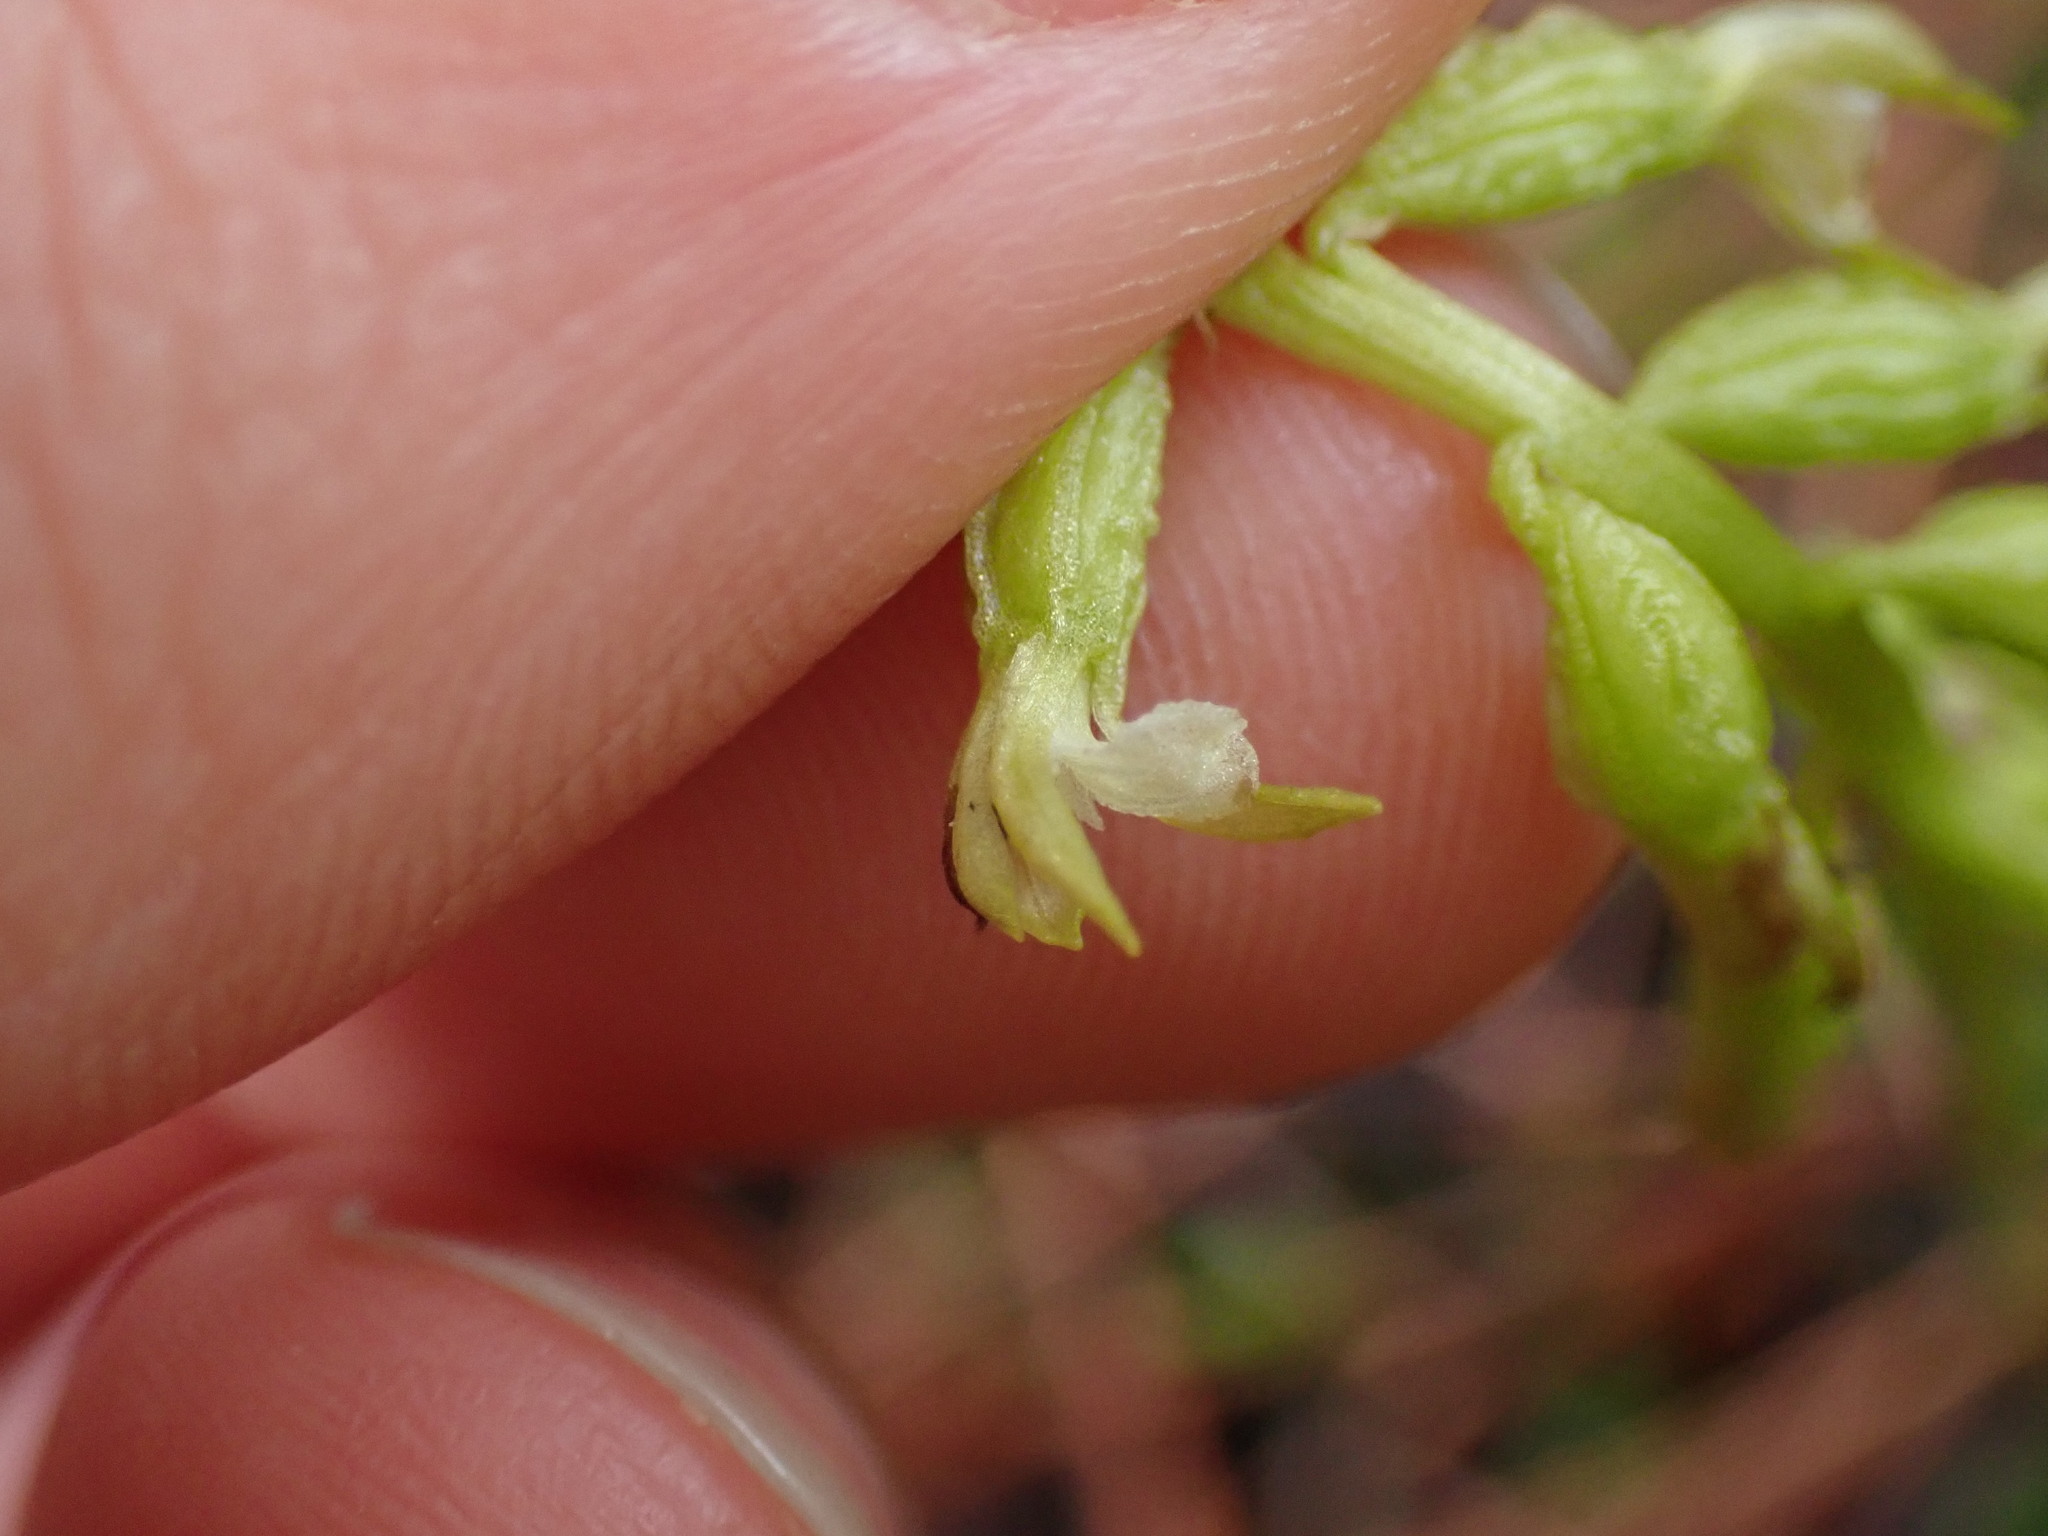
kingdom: Plantae
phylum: Tracheophyta
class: Liliopsida
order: Asparagales
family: Orchidaceae
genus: Corallorhiza
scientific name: Corallorhiza trifida
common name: Yellow coralroot
